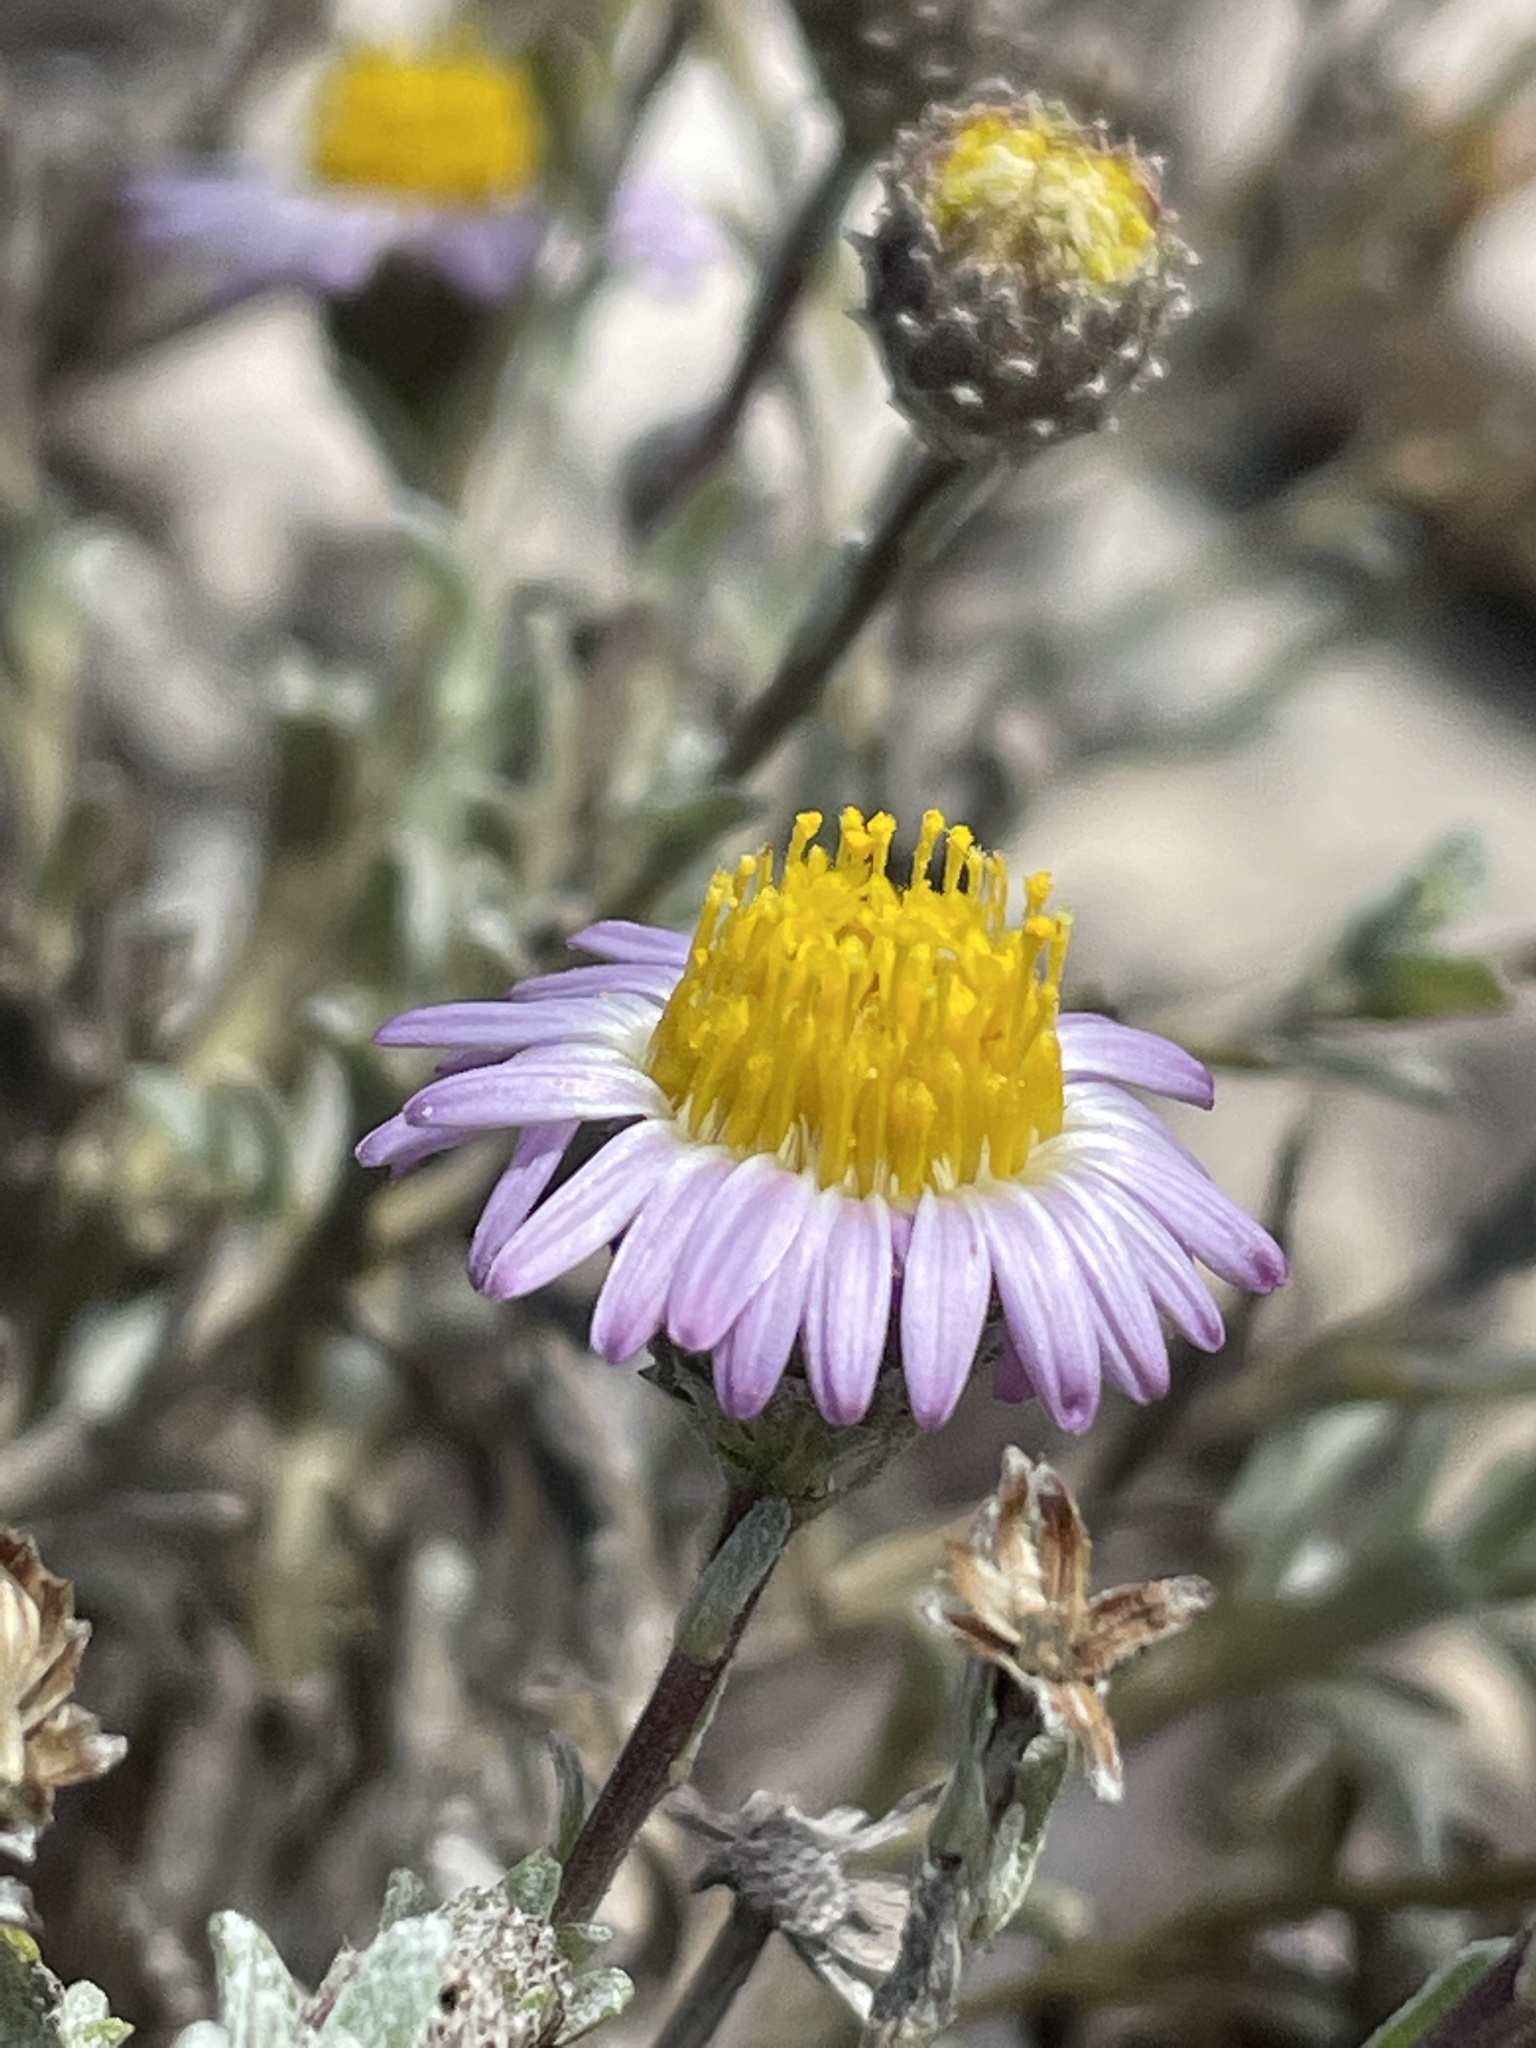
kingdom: Plantae
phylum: Tracheophyta
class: Magnoliopsida
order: Asterales
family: Asteraceae
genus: Corethrogyne
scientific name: Corethrogyne filaginifolia
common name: Sand-aster
